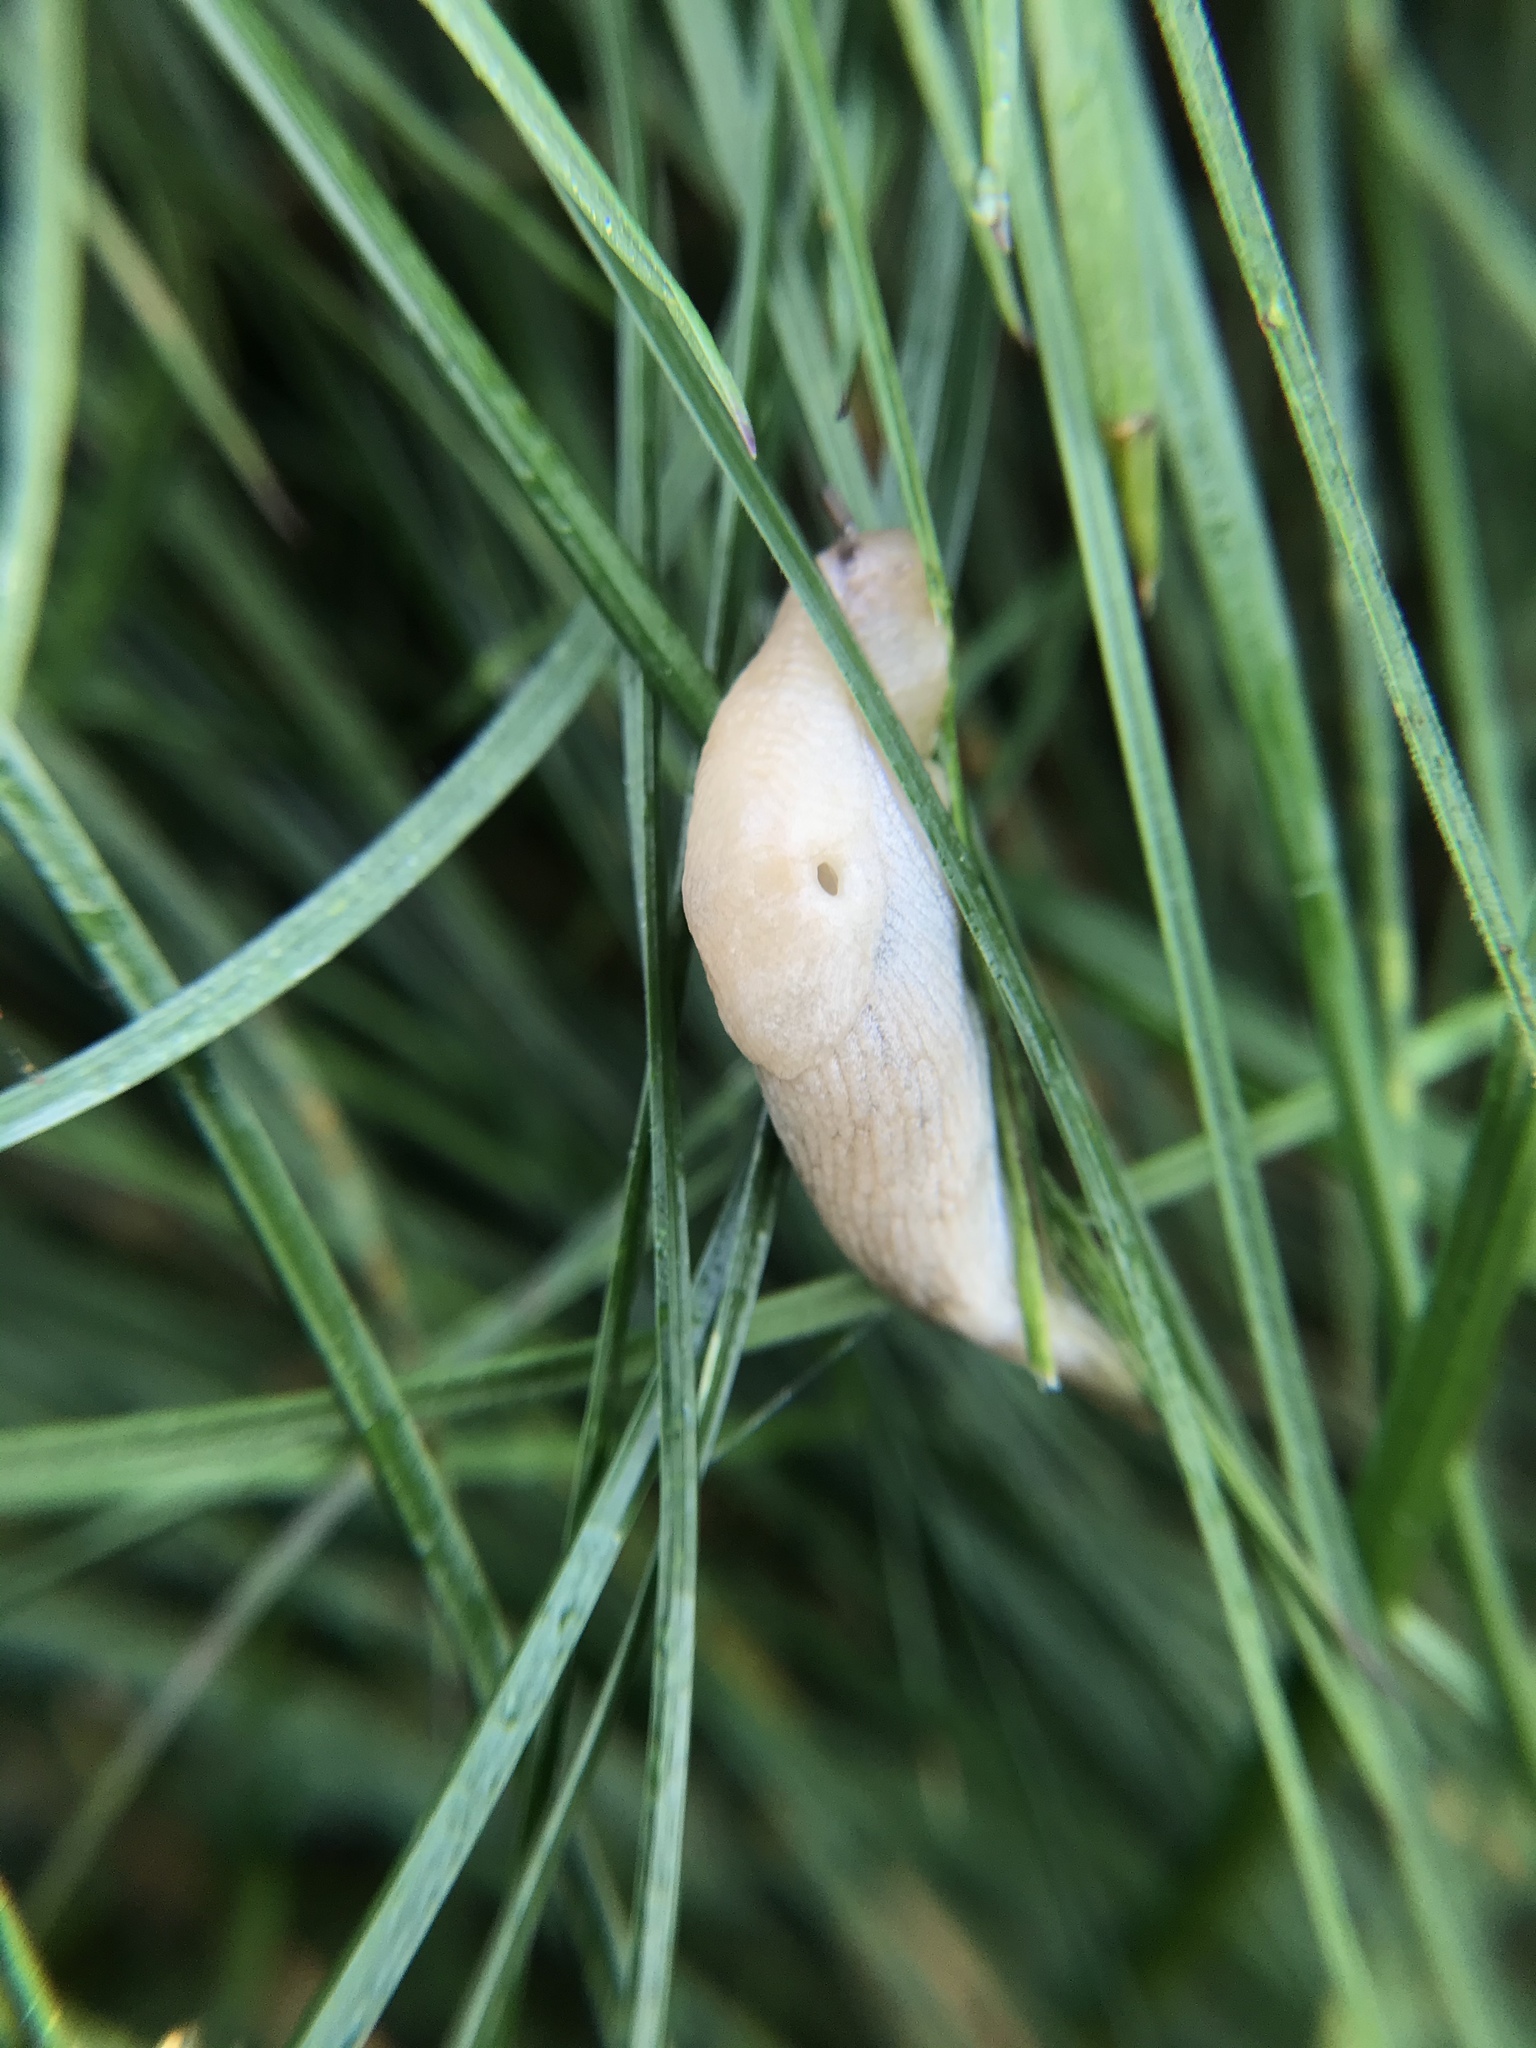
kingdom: Animalia
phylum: Mollusca
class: Gastropoda
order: Stylommatophora
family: Agriolimacidae
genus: Deroceras
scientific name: Deroceras reticulatum
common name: Gray field slug
